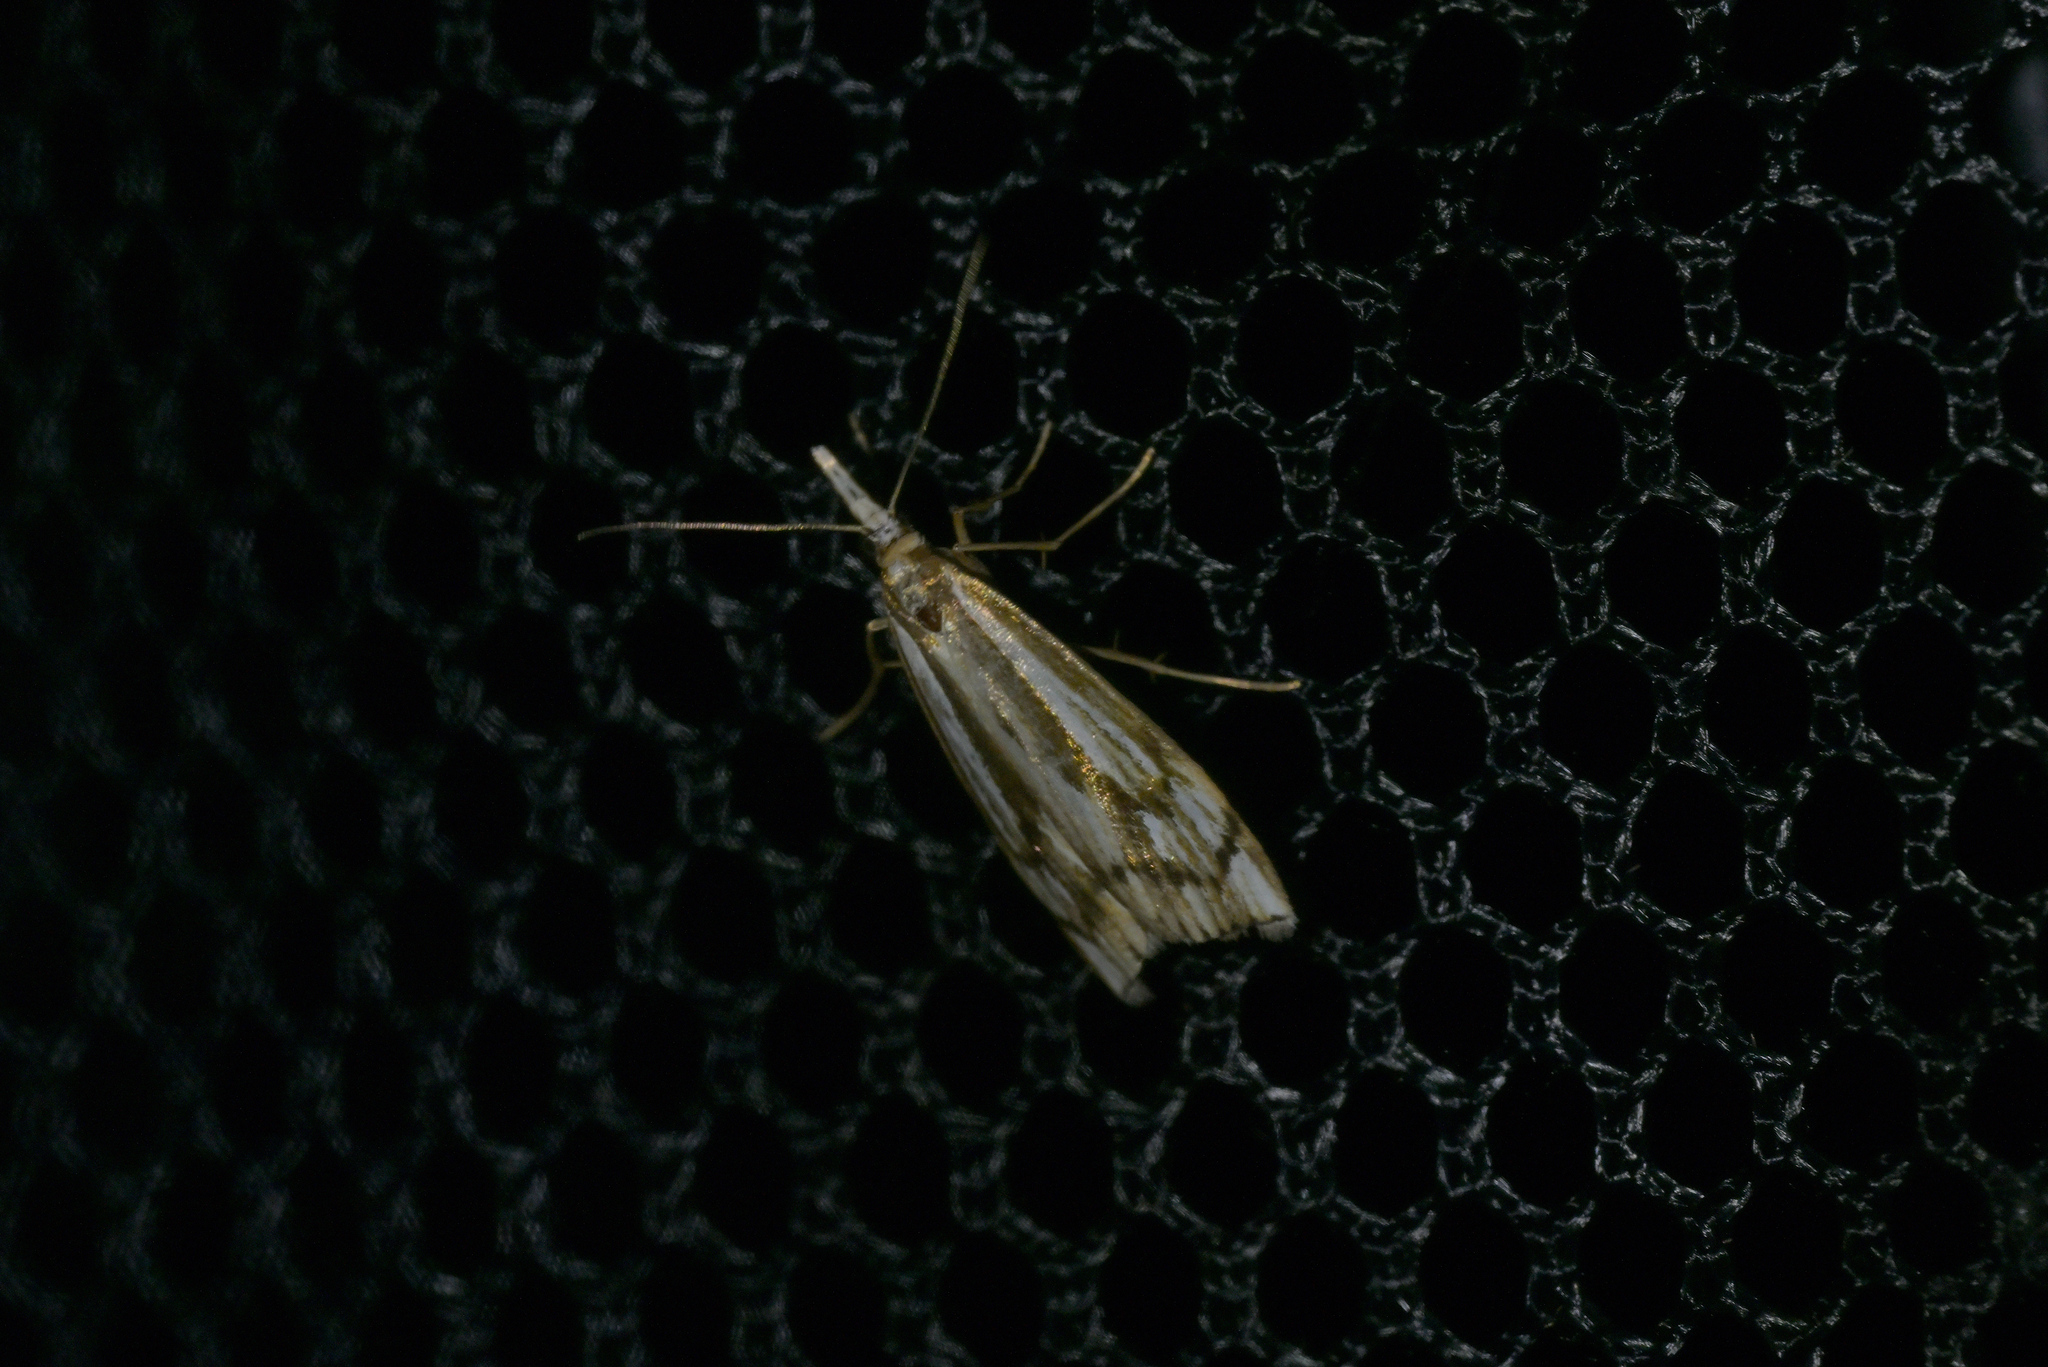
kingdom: Animalia
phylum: Arthropoda
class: Insecta
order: Lepidoptera
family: Crambidae
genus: Orocrambus
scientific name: Orocrambus ramosellus
